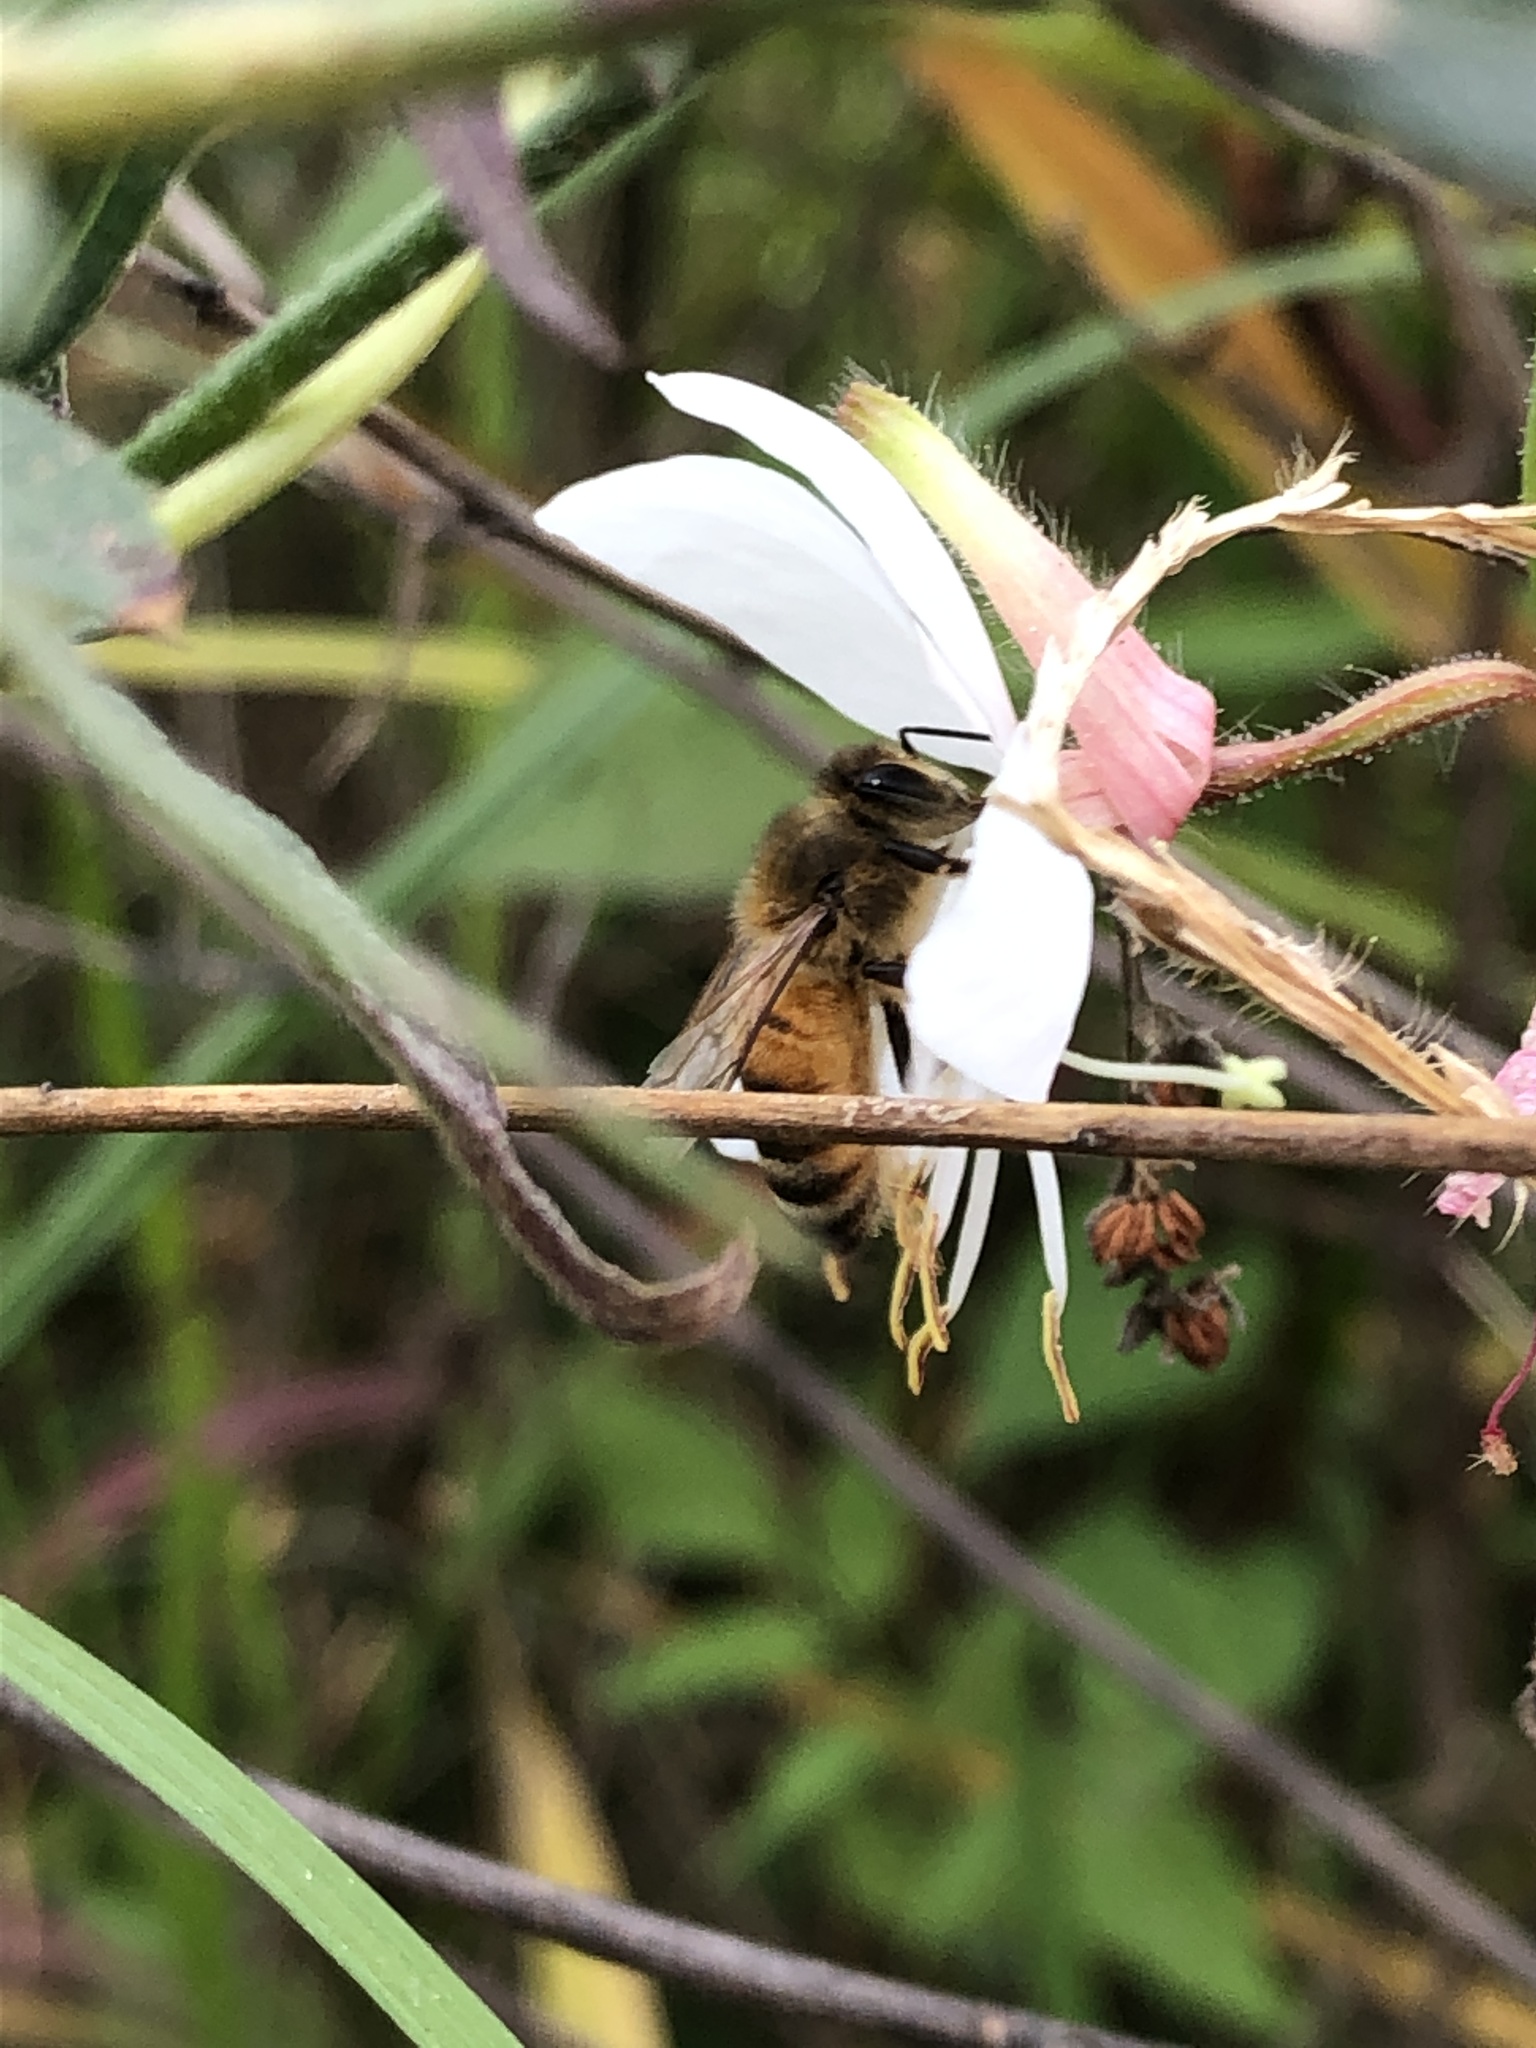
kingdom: Animalia
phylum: Arthropoda
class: Insecta
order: Hymenoptera
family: Apidae
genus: Apis
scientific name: Apis mellifera
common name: Honey bee
